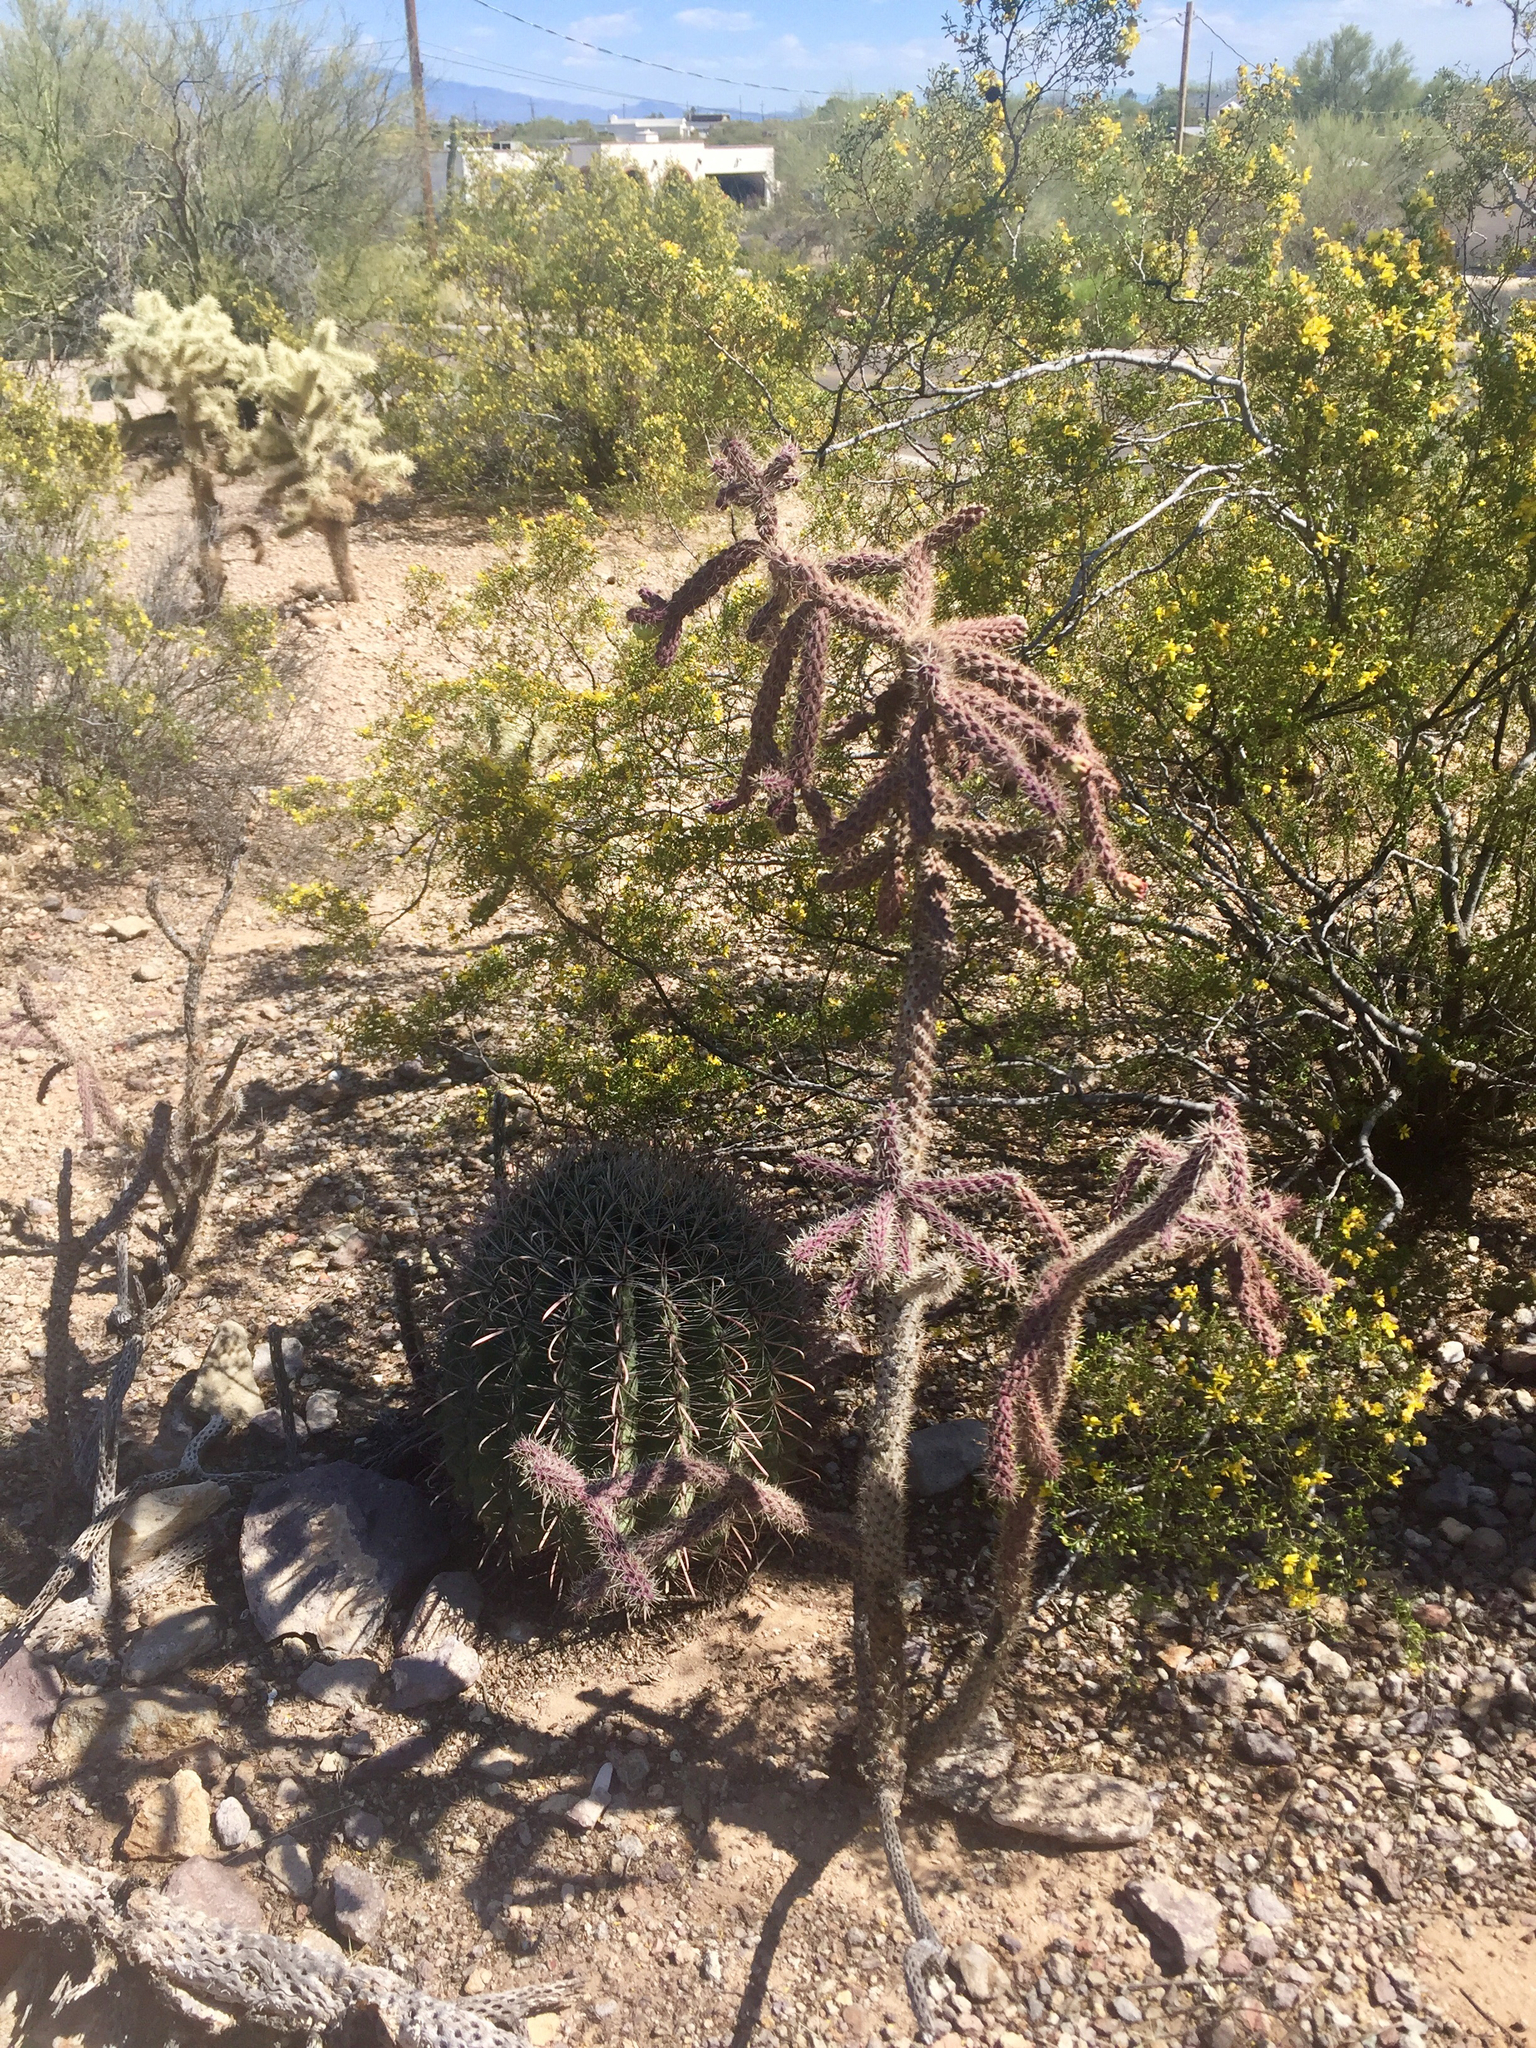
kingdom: Plantae
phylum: Tracheophyta
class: Magnoliopsida
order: Caryophyllales
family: Cactaceae
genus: Ferocactus
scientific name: Ferocactus wislizeni
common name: Candy barrel cactus
